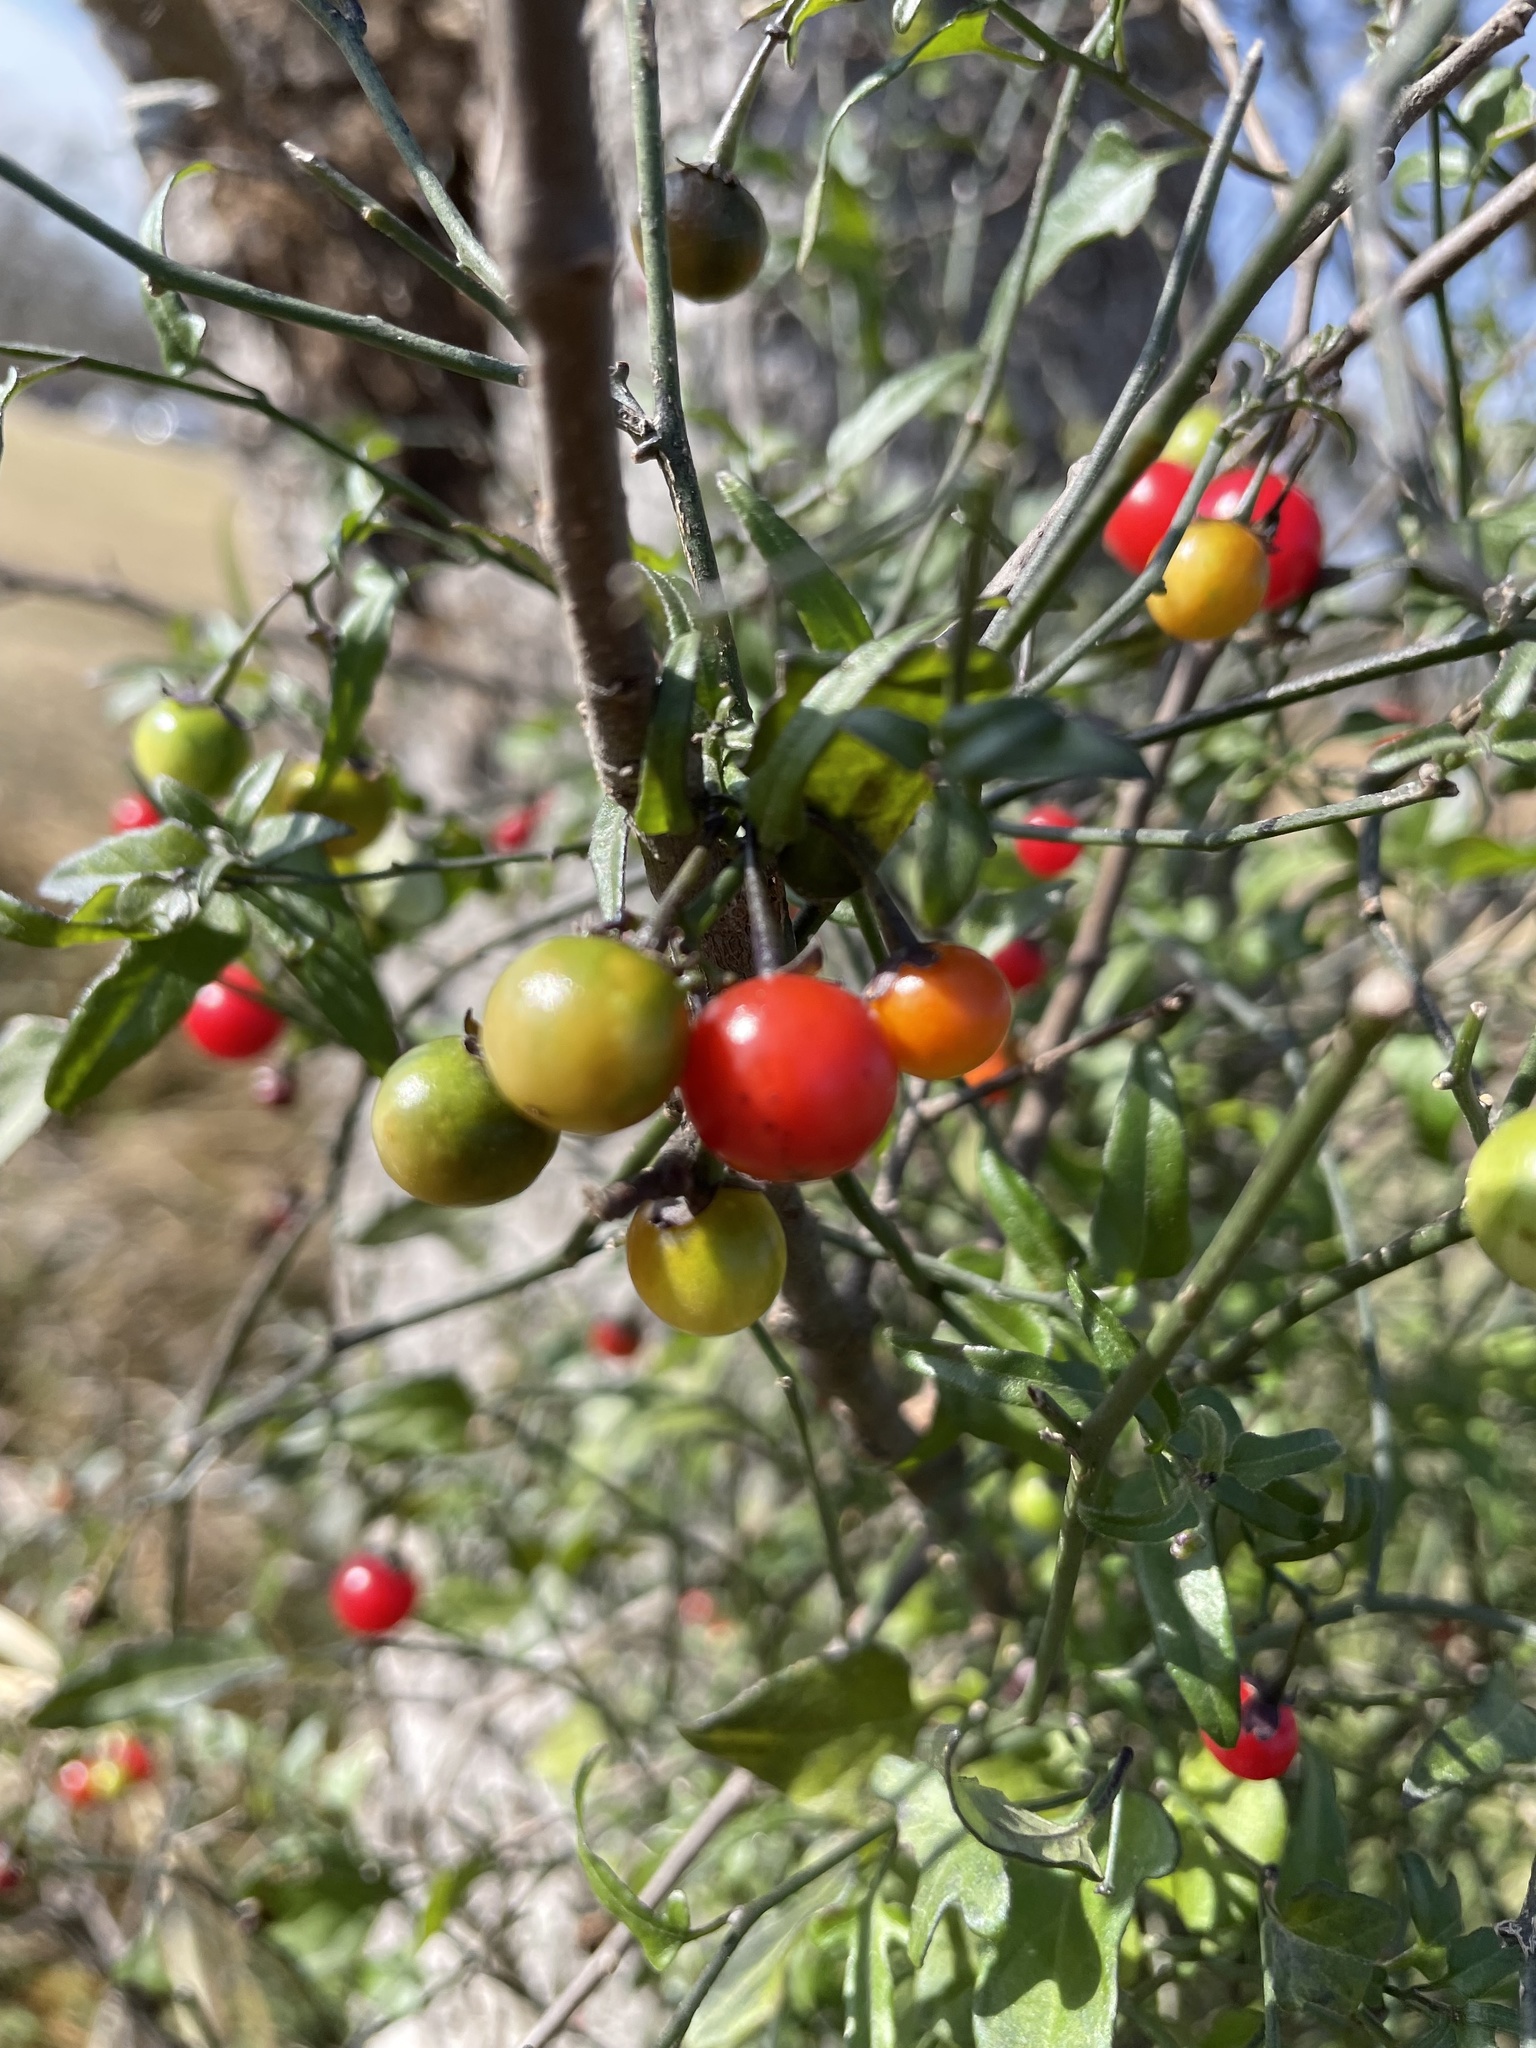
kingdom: Plantae
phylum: Tracheophyta
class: Magnoliopsida
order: Solanales
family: Solanaceae
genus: Solanum
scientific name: Solanum triquetrum
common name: Texas nightshade
